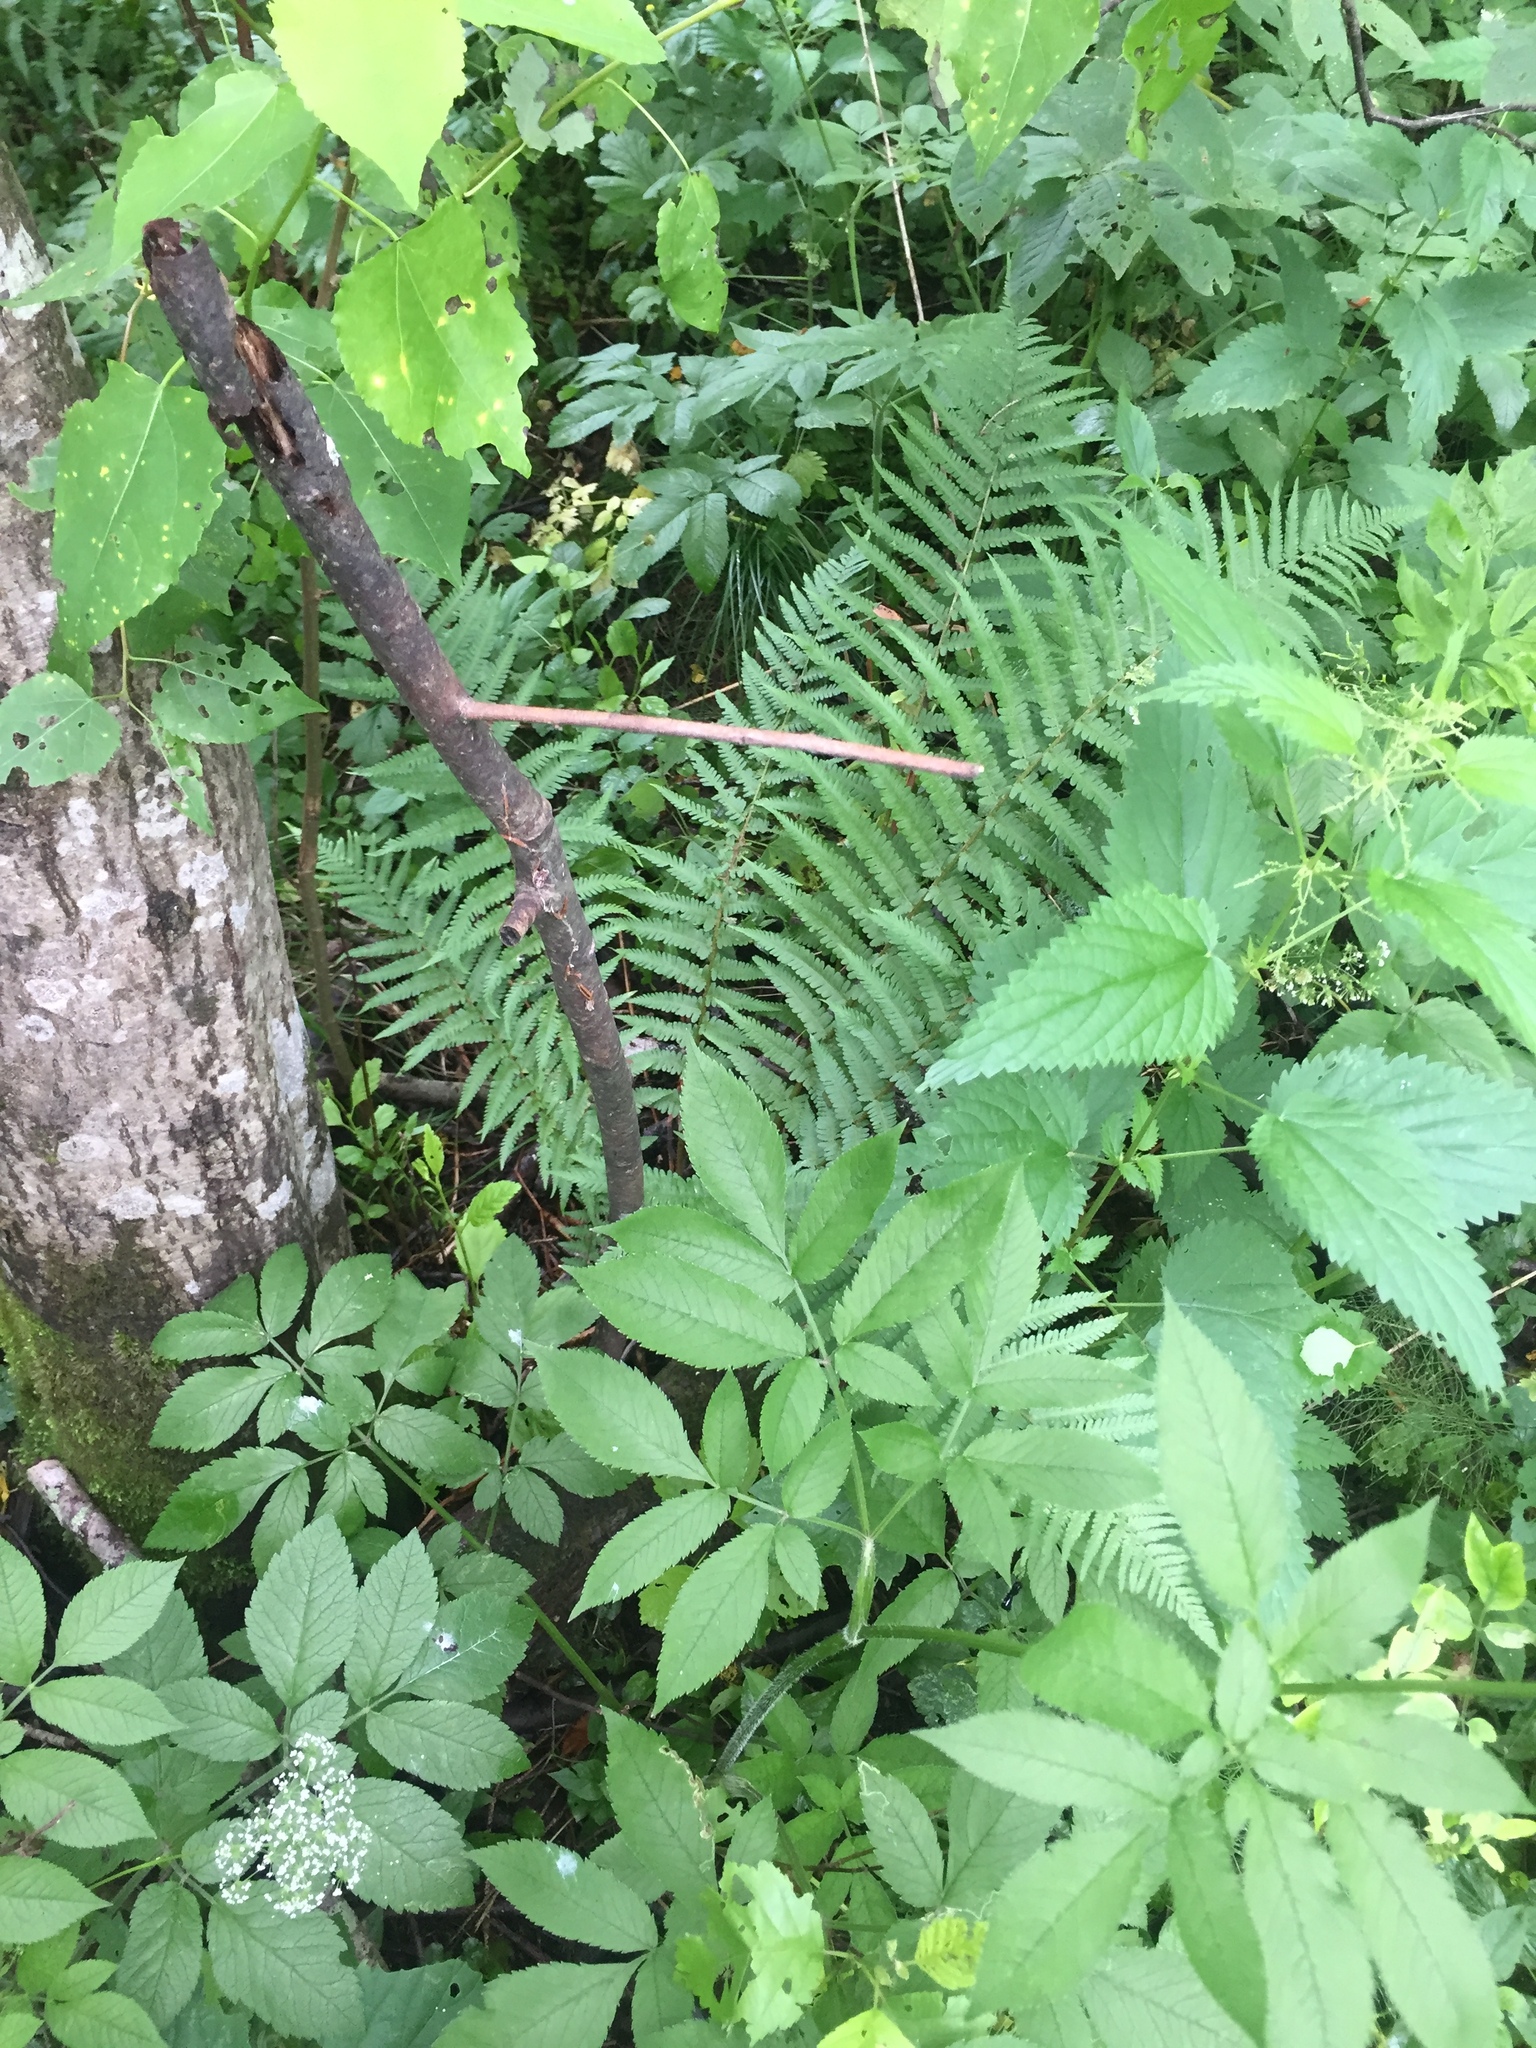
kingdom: Plantae
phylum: Tracheophyta
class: Polypodiopsida
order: Polypodiales
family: Dryopteridaceae
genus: Dryopteris
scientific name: Dryopteris filix-mas
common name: Male fern
